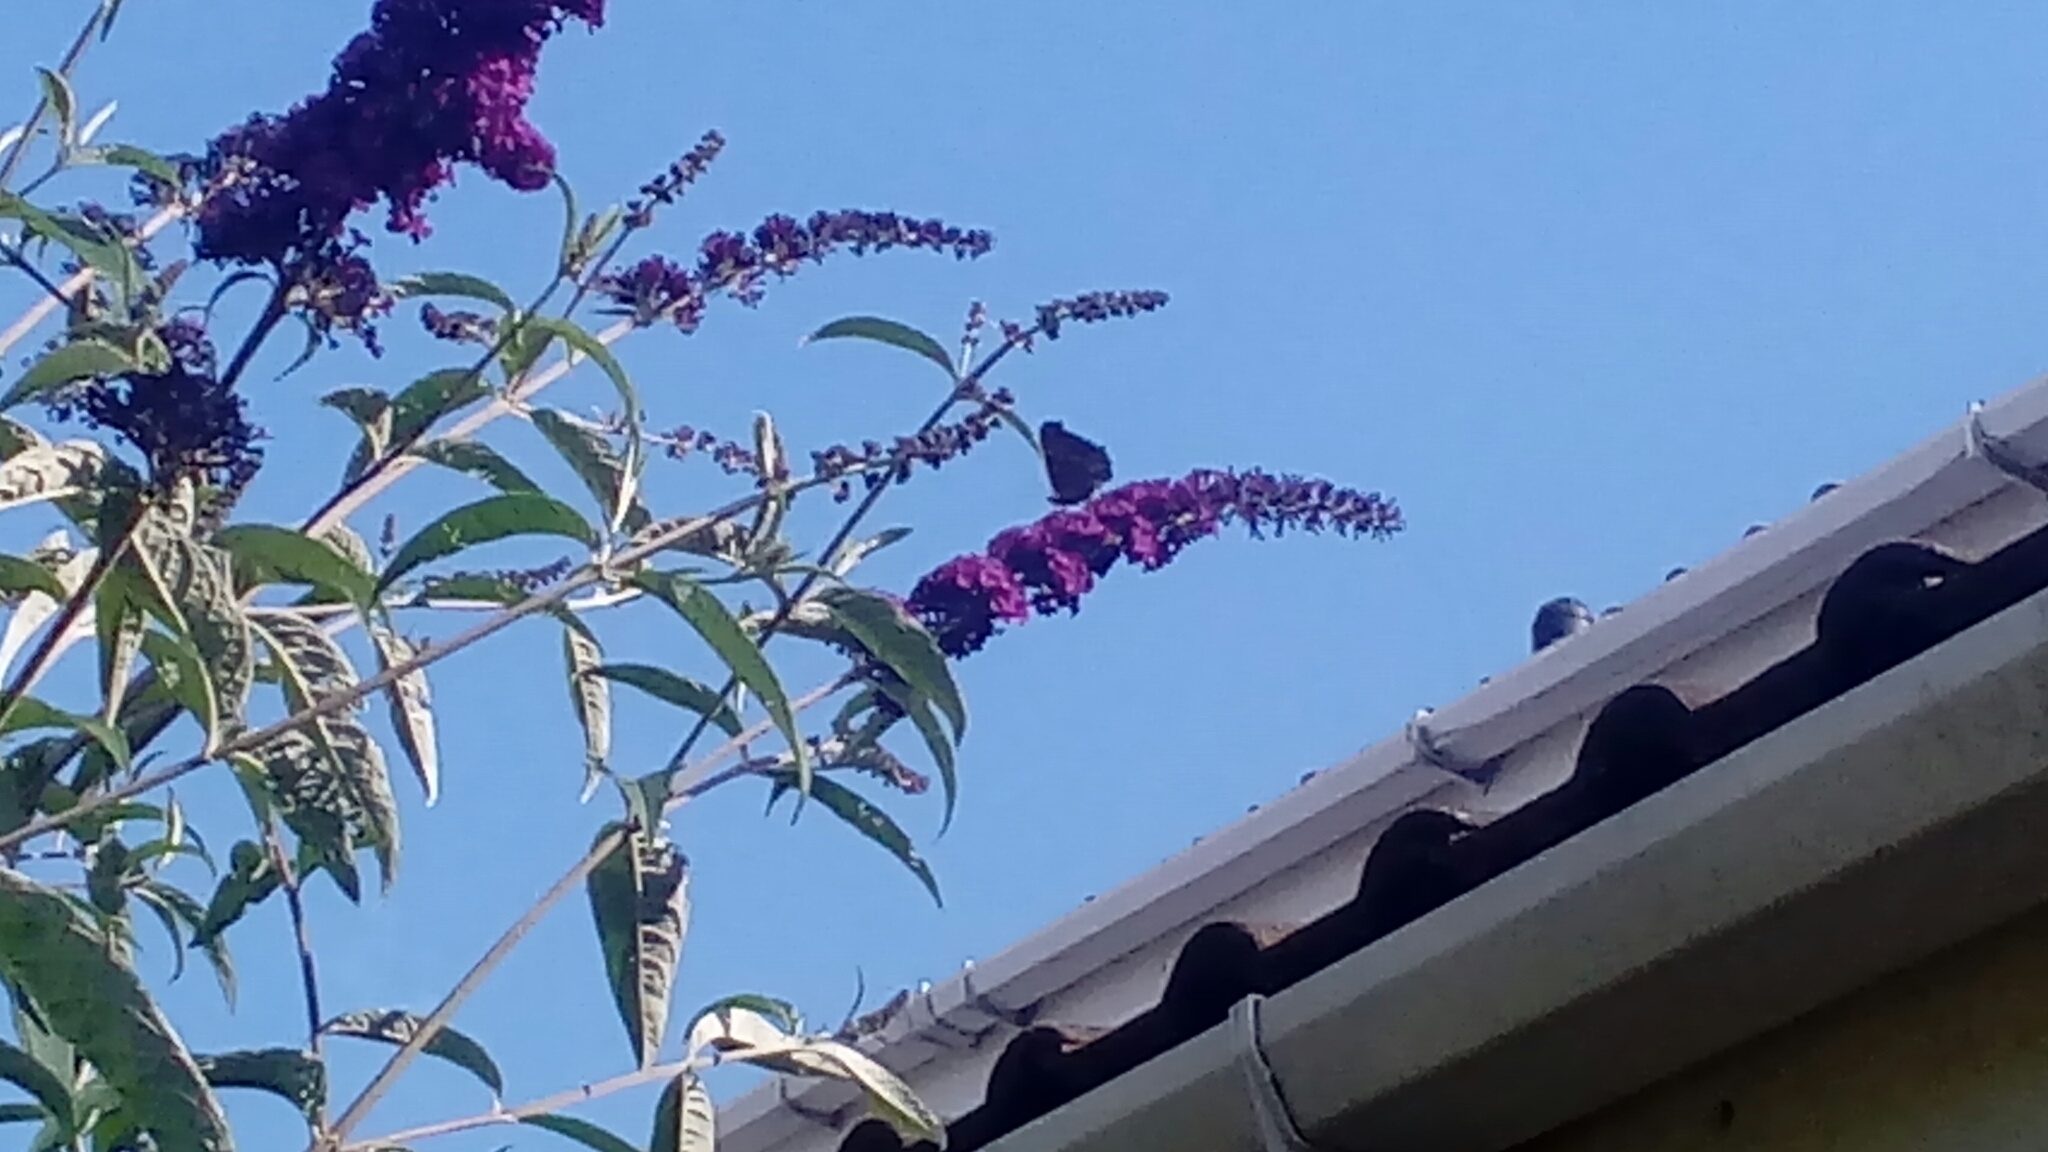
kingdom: Animalia
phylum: Arthropoda
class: Insecta
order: Lepidoptera
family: Nymphalidae
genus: Aglais
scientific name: Aglais io
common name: Peacock
